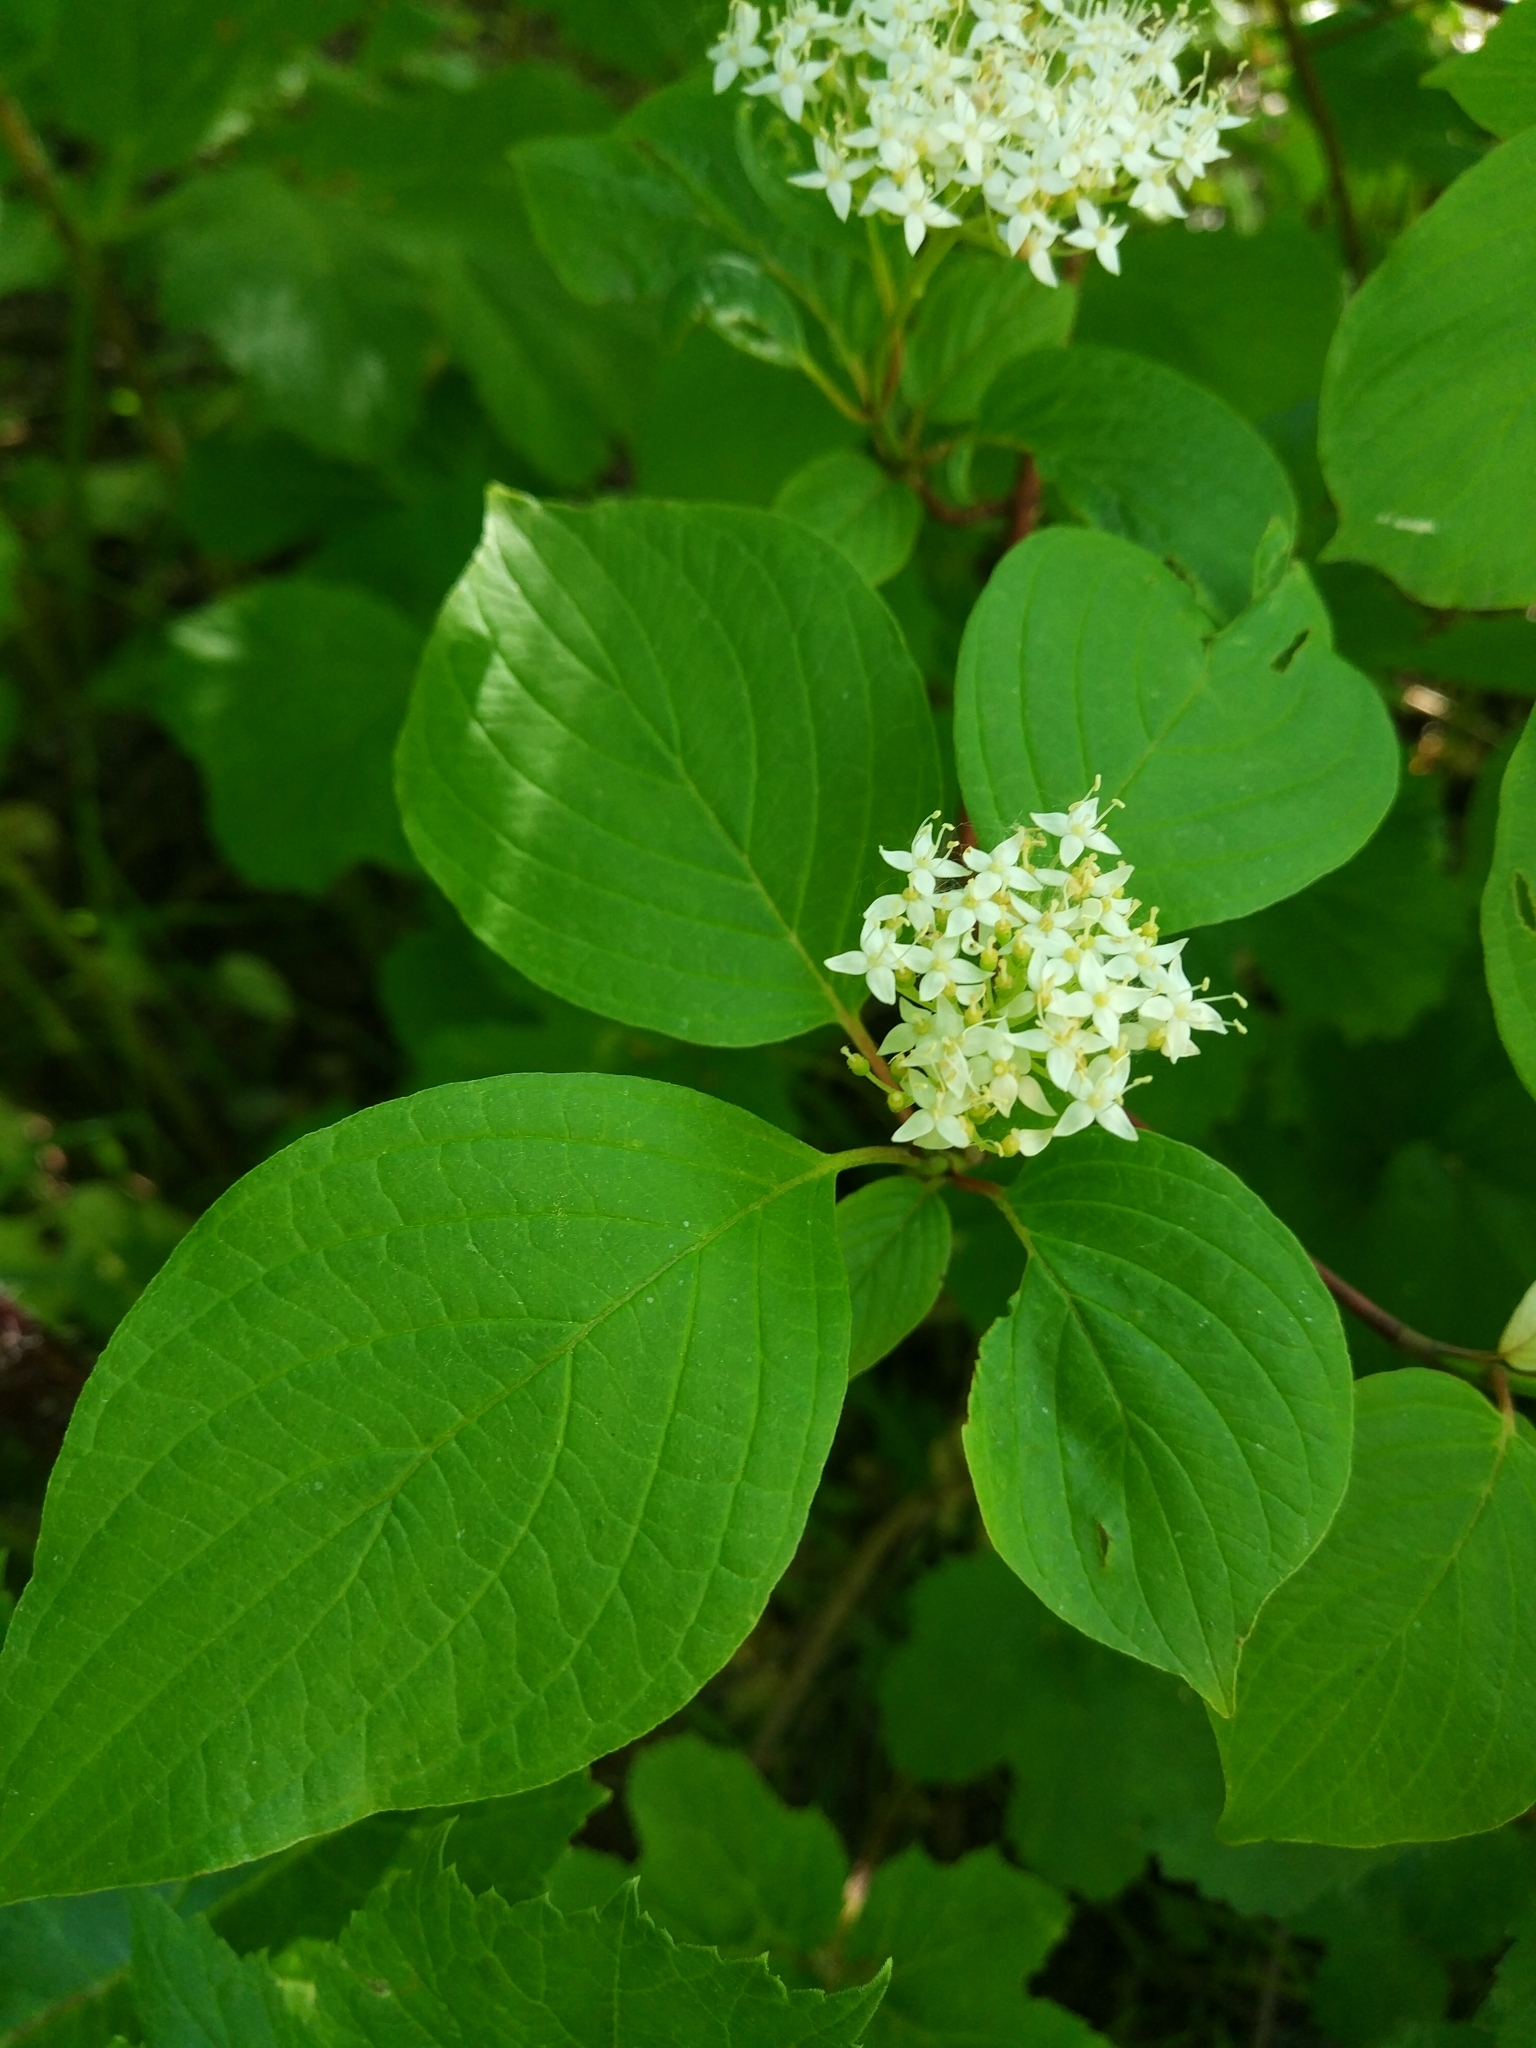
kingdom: Plantae
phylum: Tracheophyta
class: Magnoliopsida
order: Cornales
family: Cornaceae
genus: Cornus
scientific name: Cornus alba
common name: White dogwood
